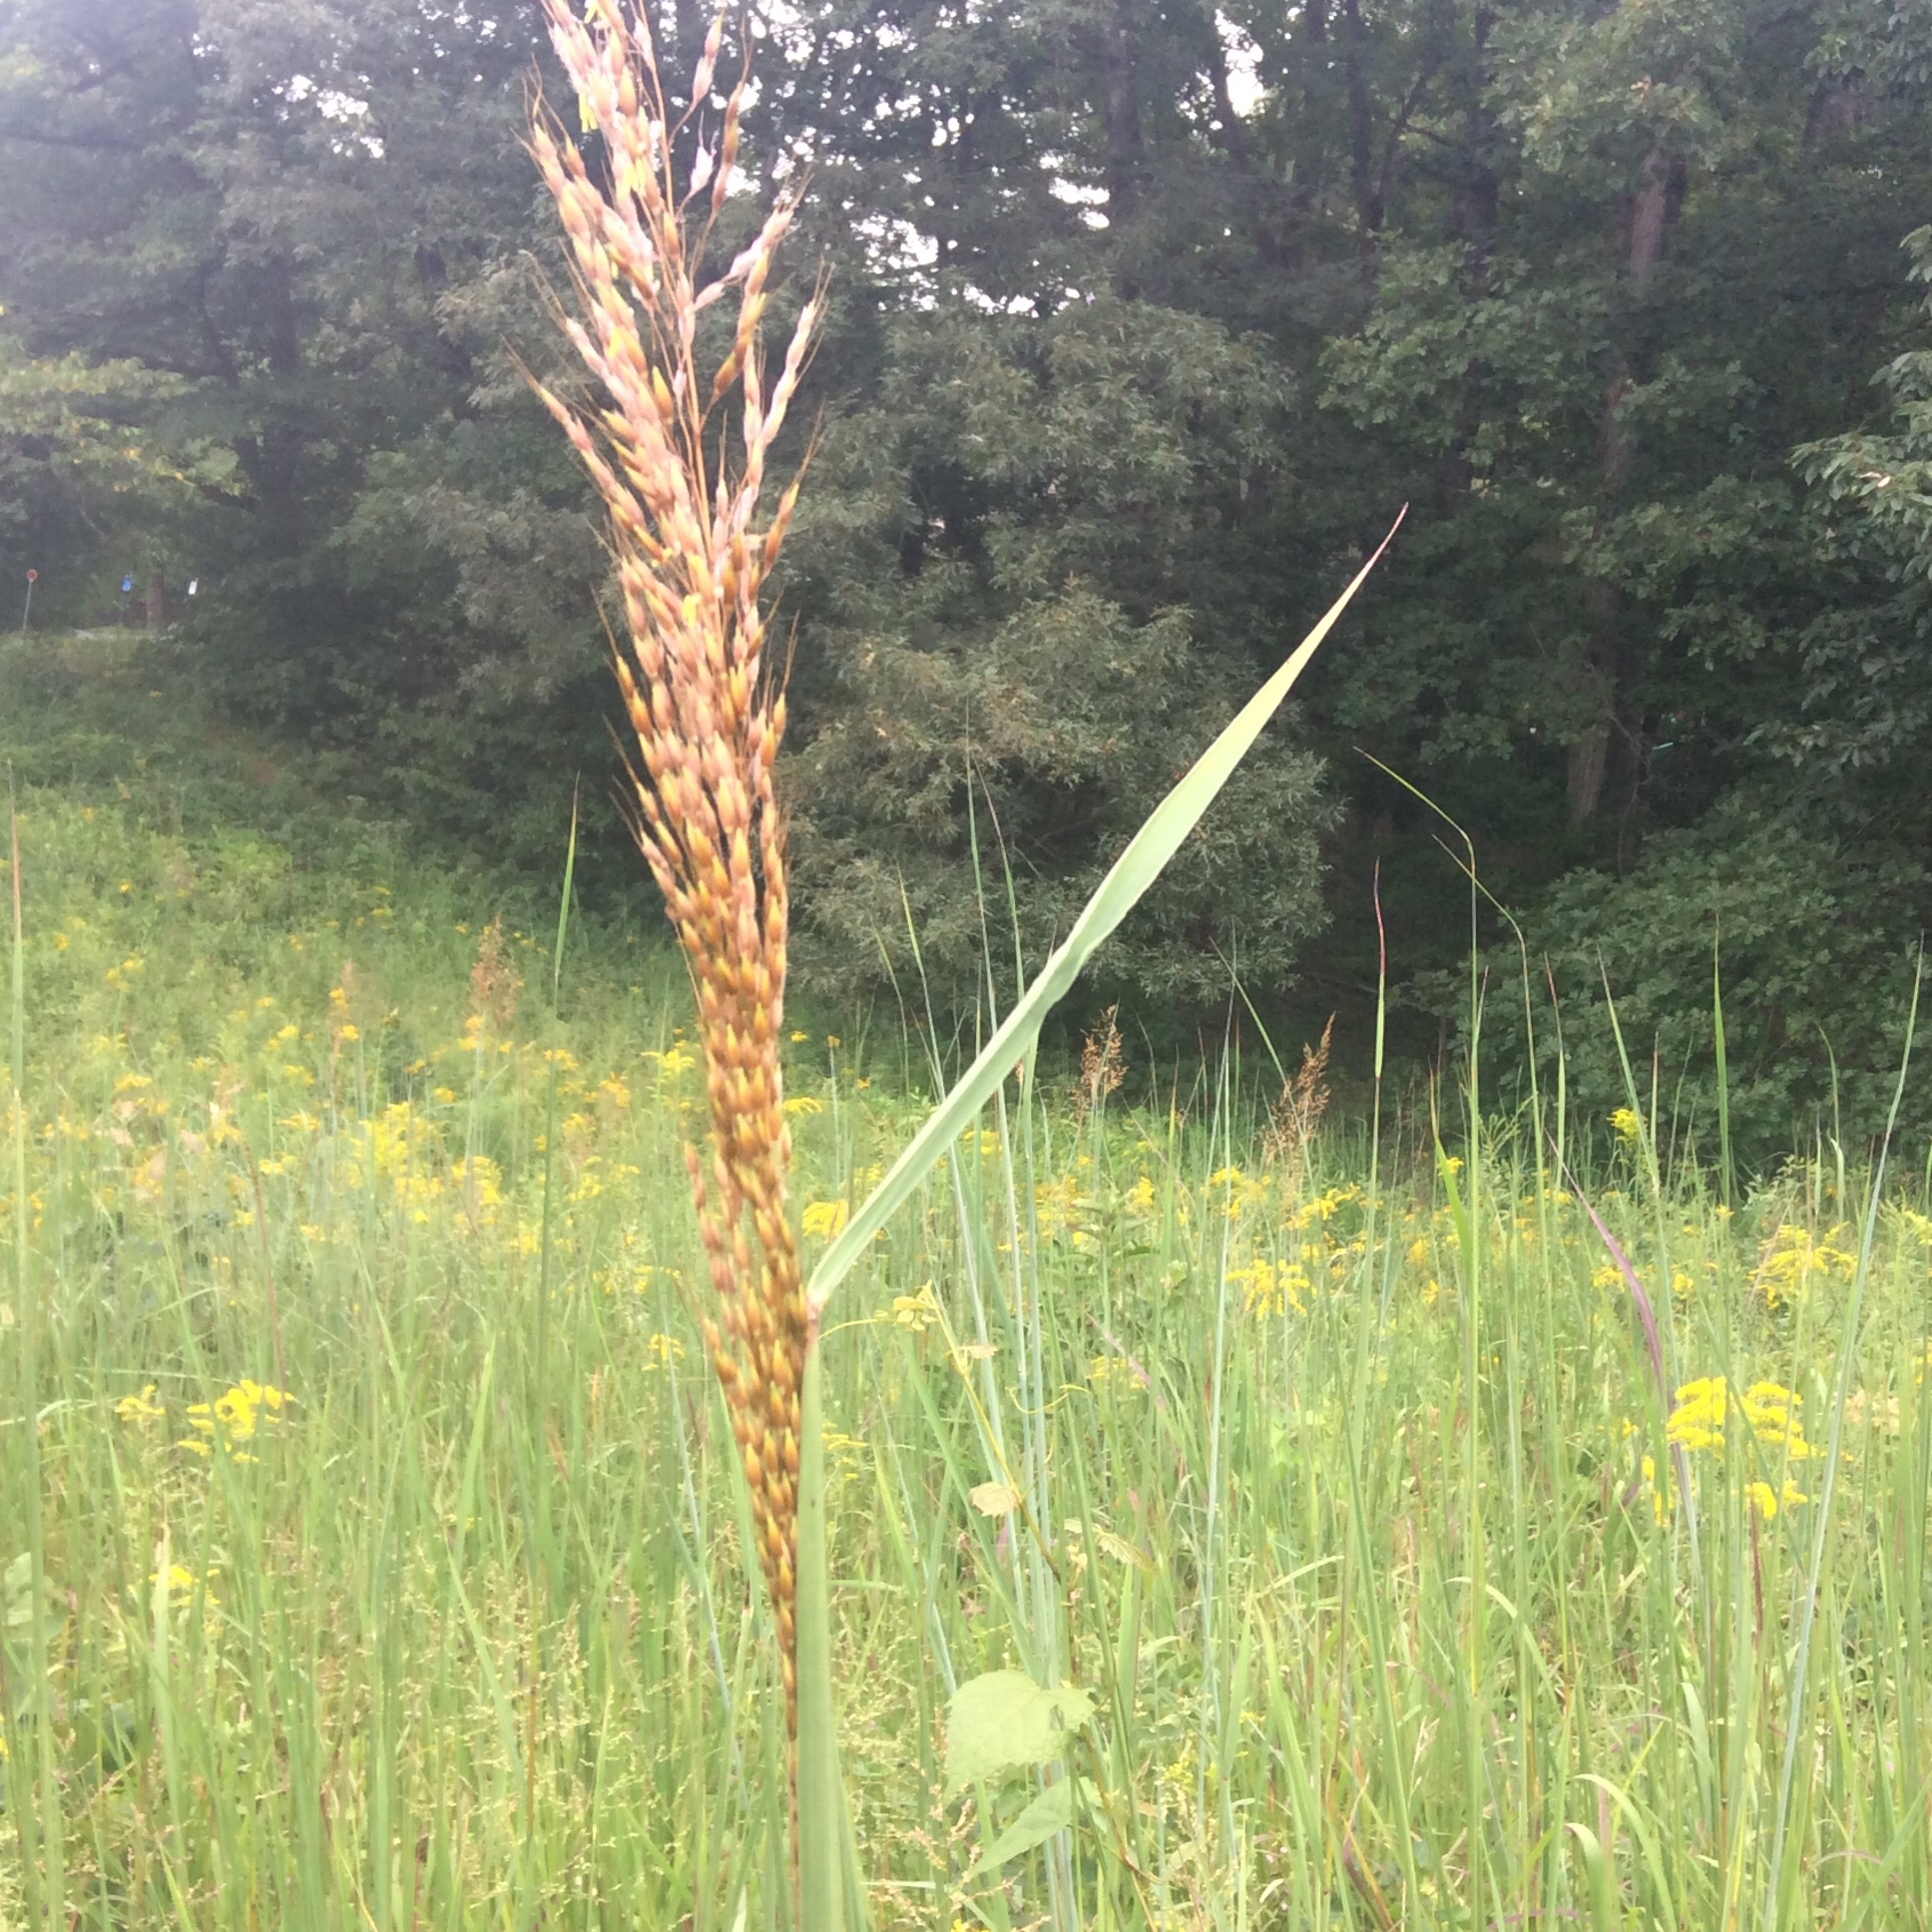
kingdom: Plantae
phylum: Tracheophyta
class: Liliopsida
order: Poales
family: Poaceae
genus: Sorghastrum
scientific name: Sorghastrum nutans
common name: Indian grass
